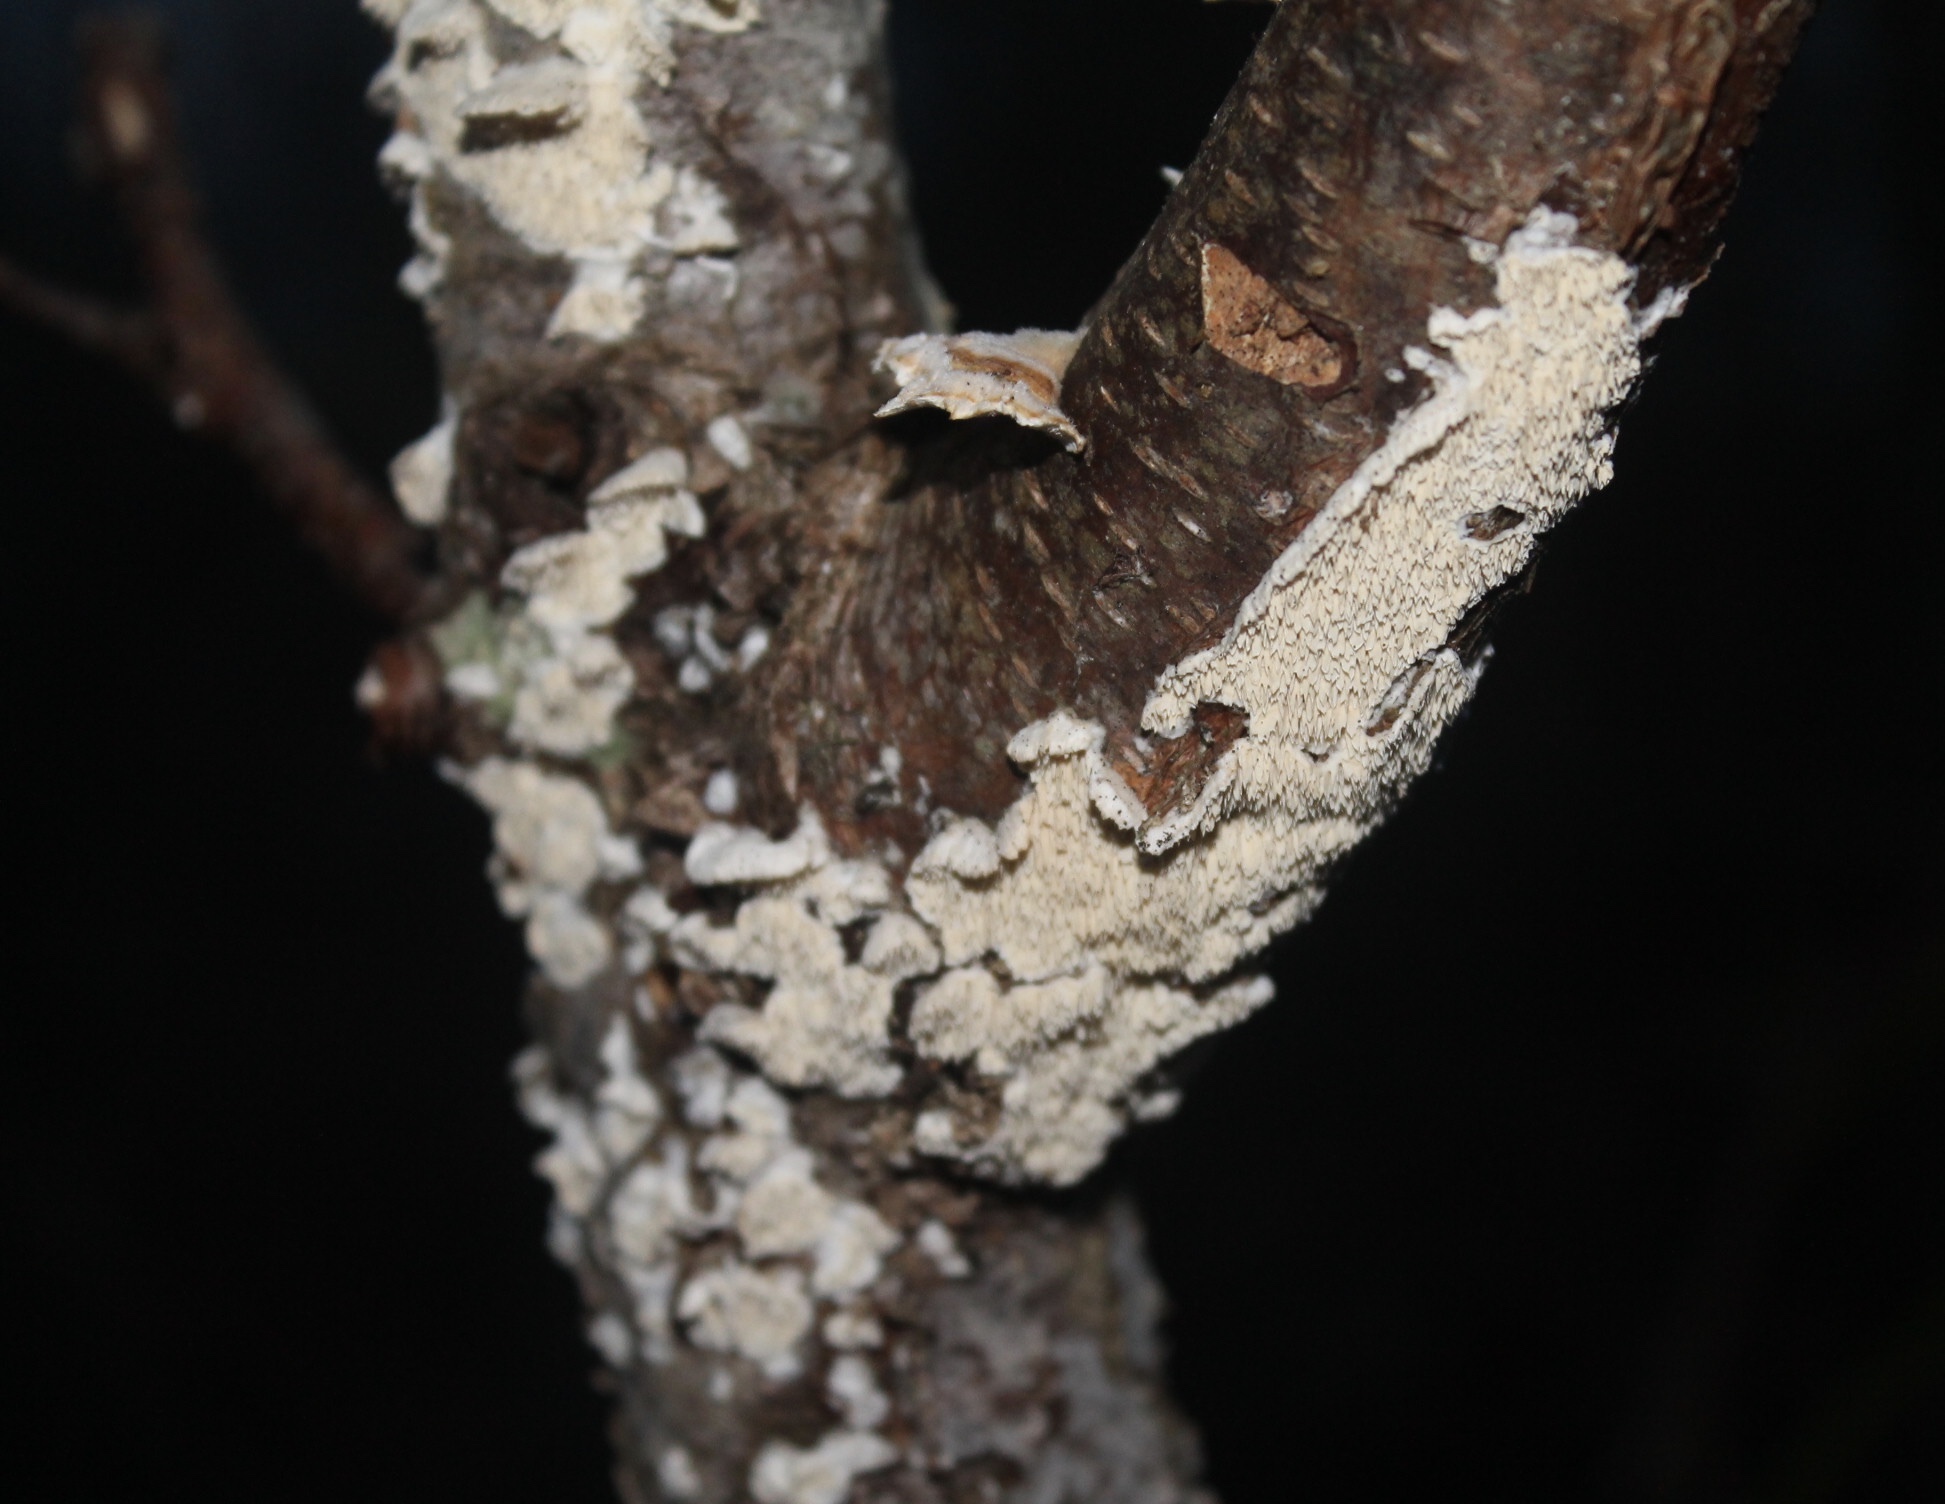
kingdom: Fungi
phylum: Basidiomycota
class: Agaricomycetes
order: Polyporales
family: Irpicaceae
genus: Irpex
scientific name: Irpex lacteus
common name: Milk-white toothed polypore
